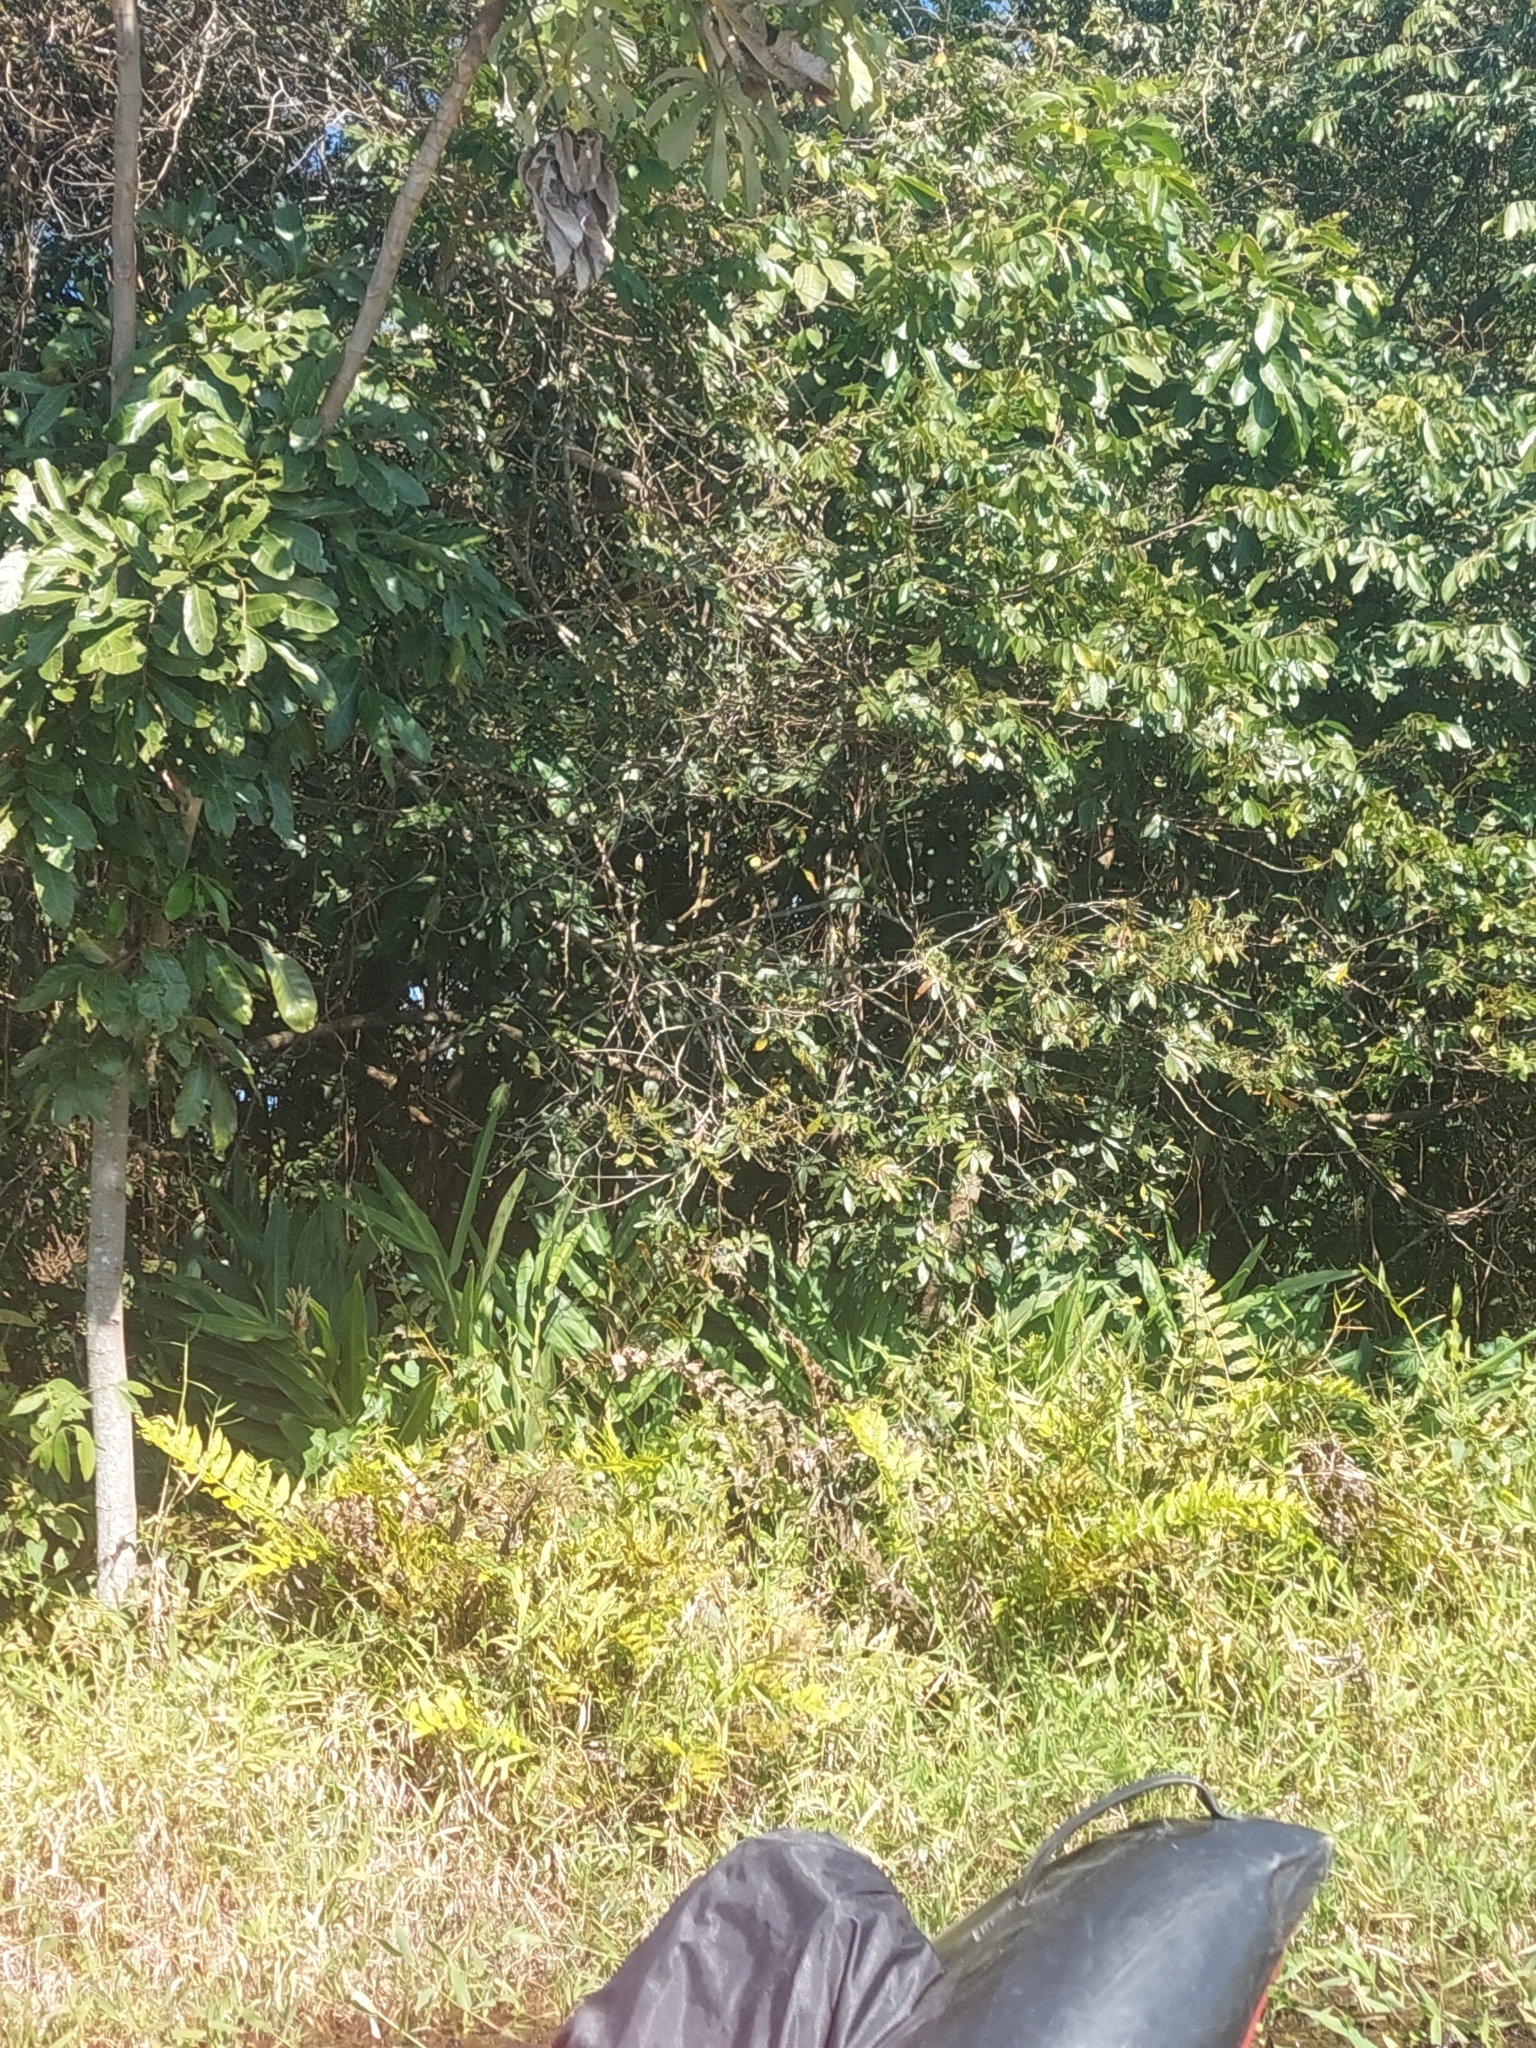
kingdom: Plantae
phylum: Tracheophyta
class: Liliopsida
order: Zingiberales
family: Zingiberaceae
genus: Hedychium
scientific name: Hedychium coronarium
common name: White garland-lily
